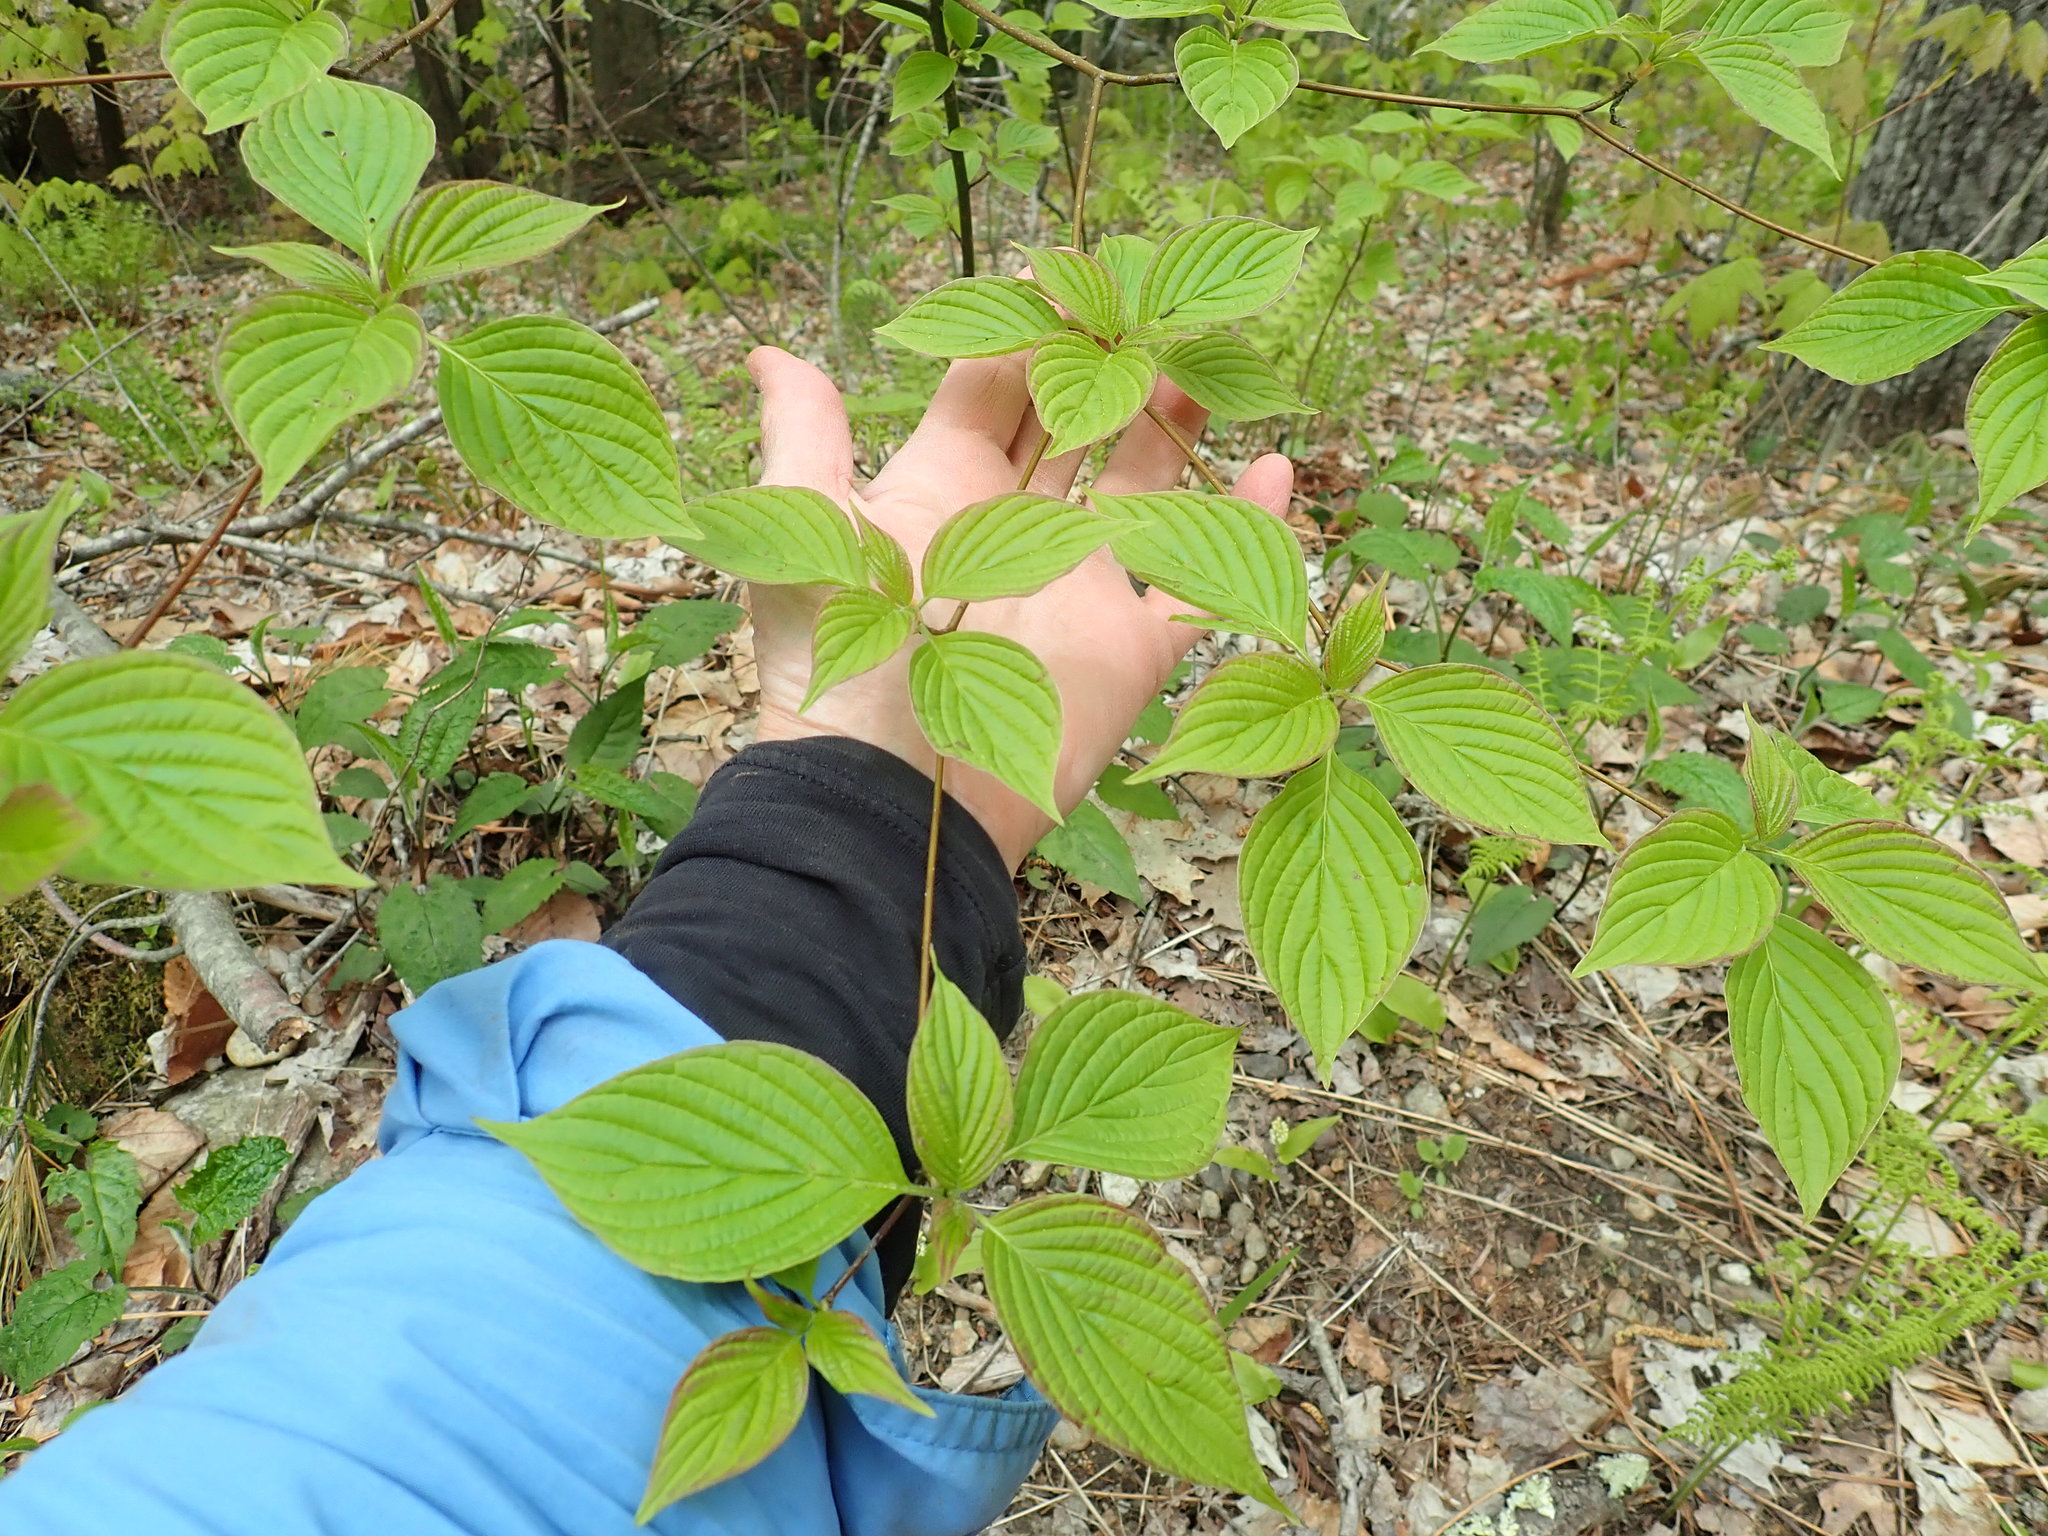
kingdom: Plantae
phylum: Tracheophyta
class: Magnoliopsida
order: Cornales
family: Cornaceae
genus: Cornus
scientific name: Cornus alternifolia
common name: Pagoda dogwood
